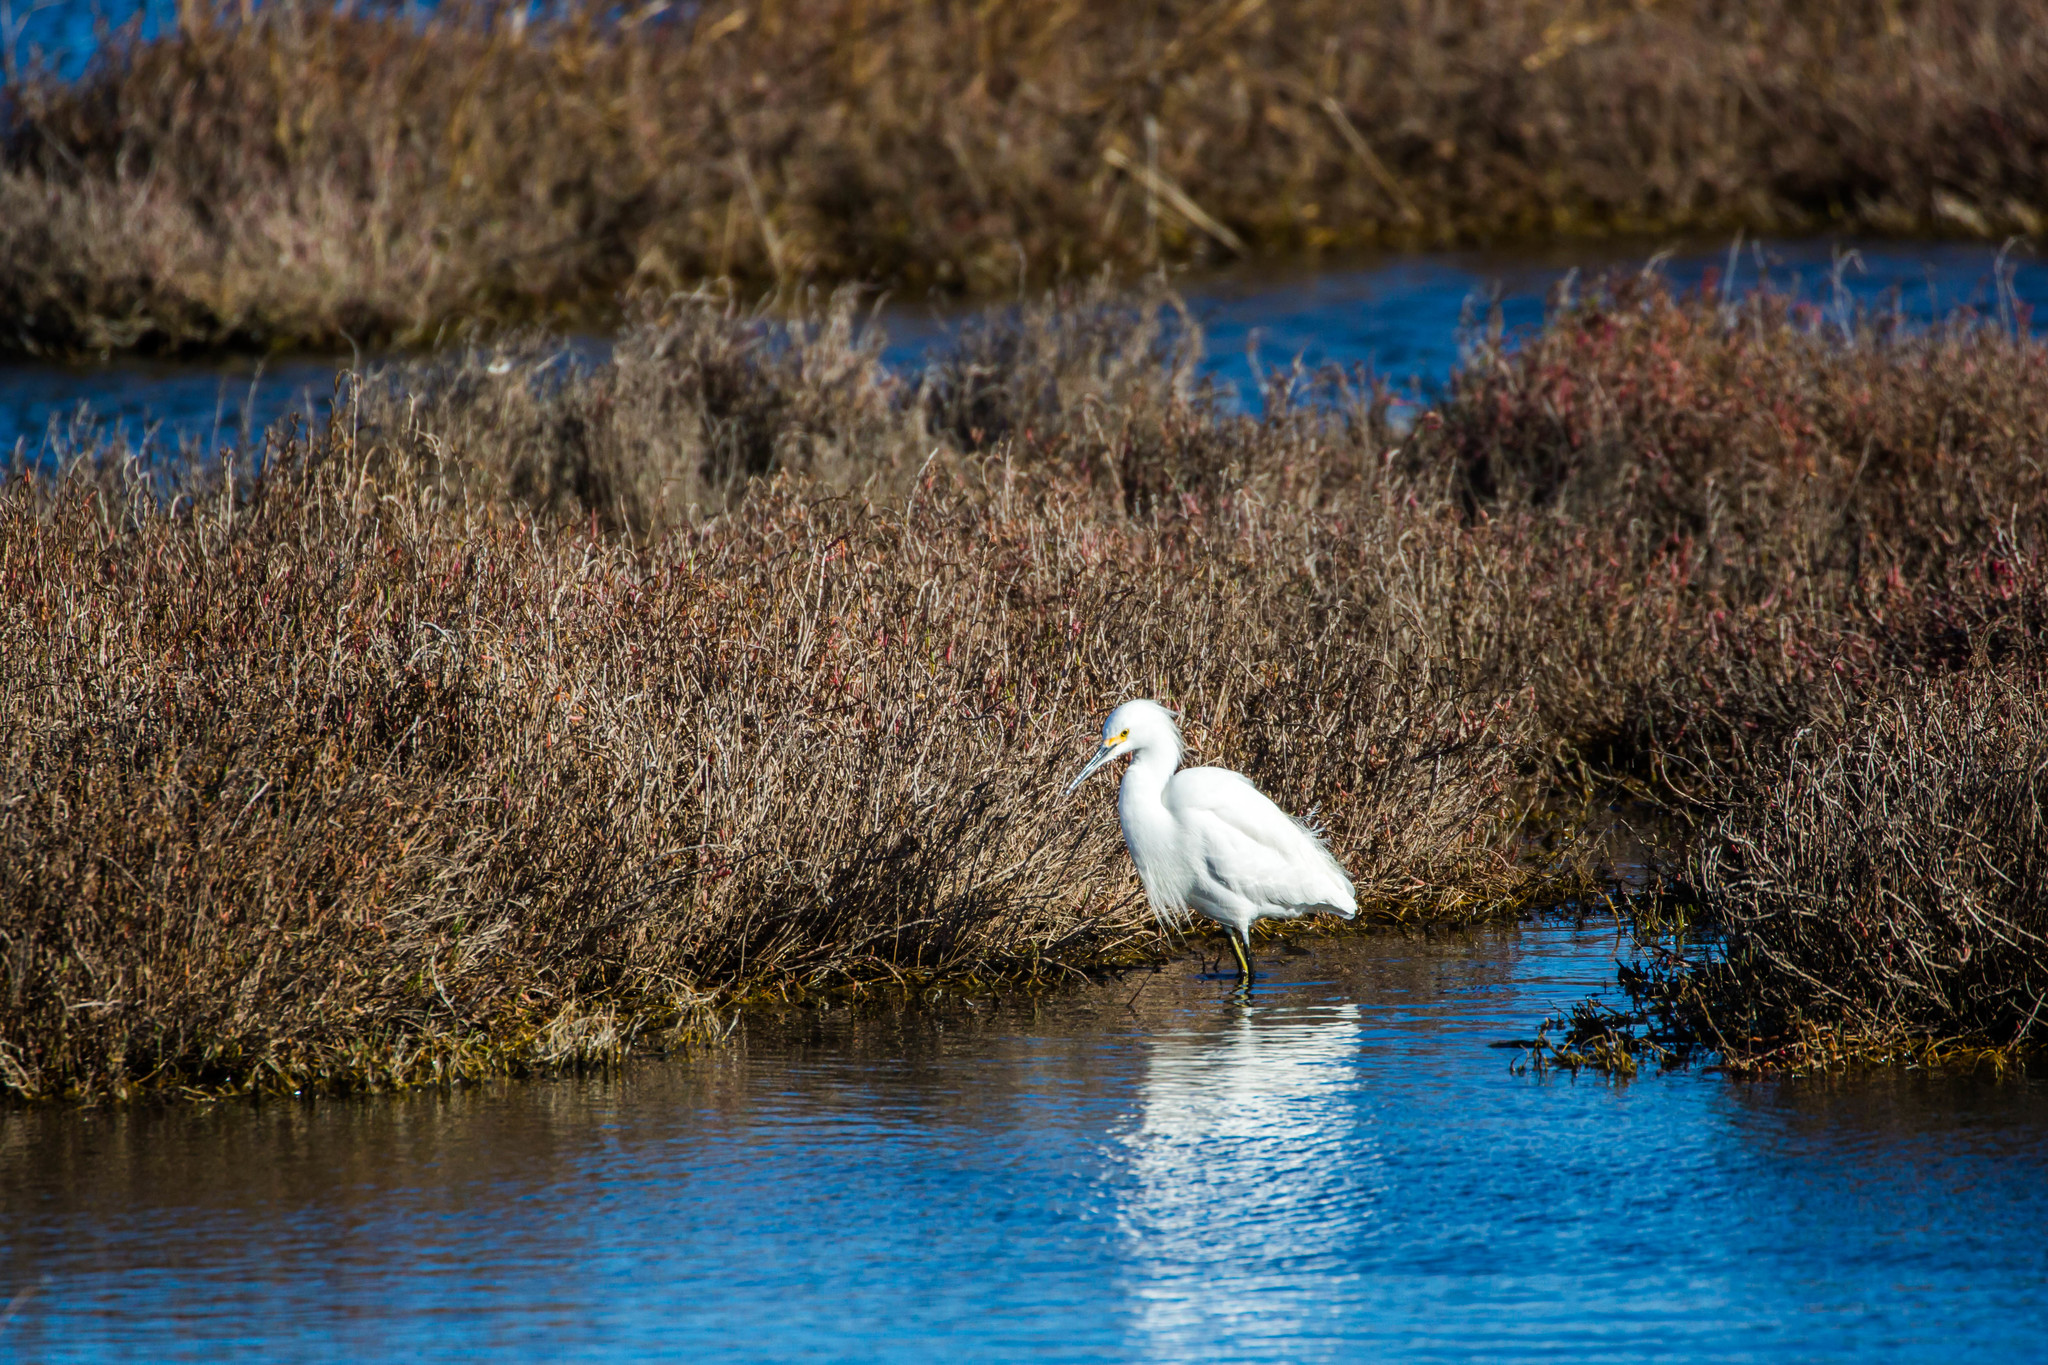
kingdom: Animalia
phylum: Chordata
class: Aves
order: Pelecaniformes
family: Ardeidae
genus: Egretta
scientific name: Egretta thula
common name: Snowy egret
